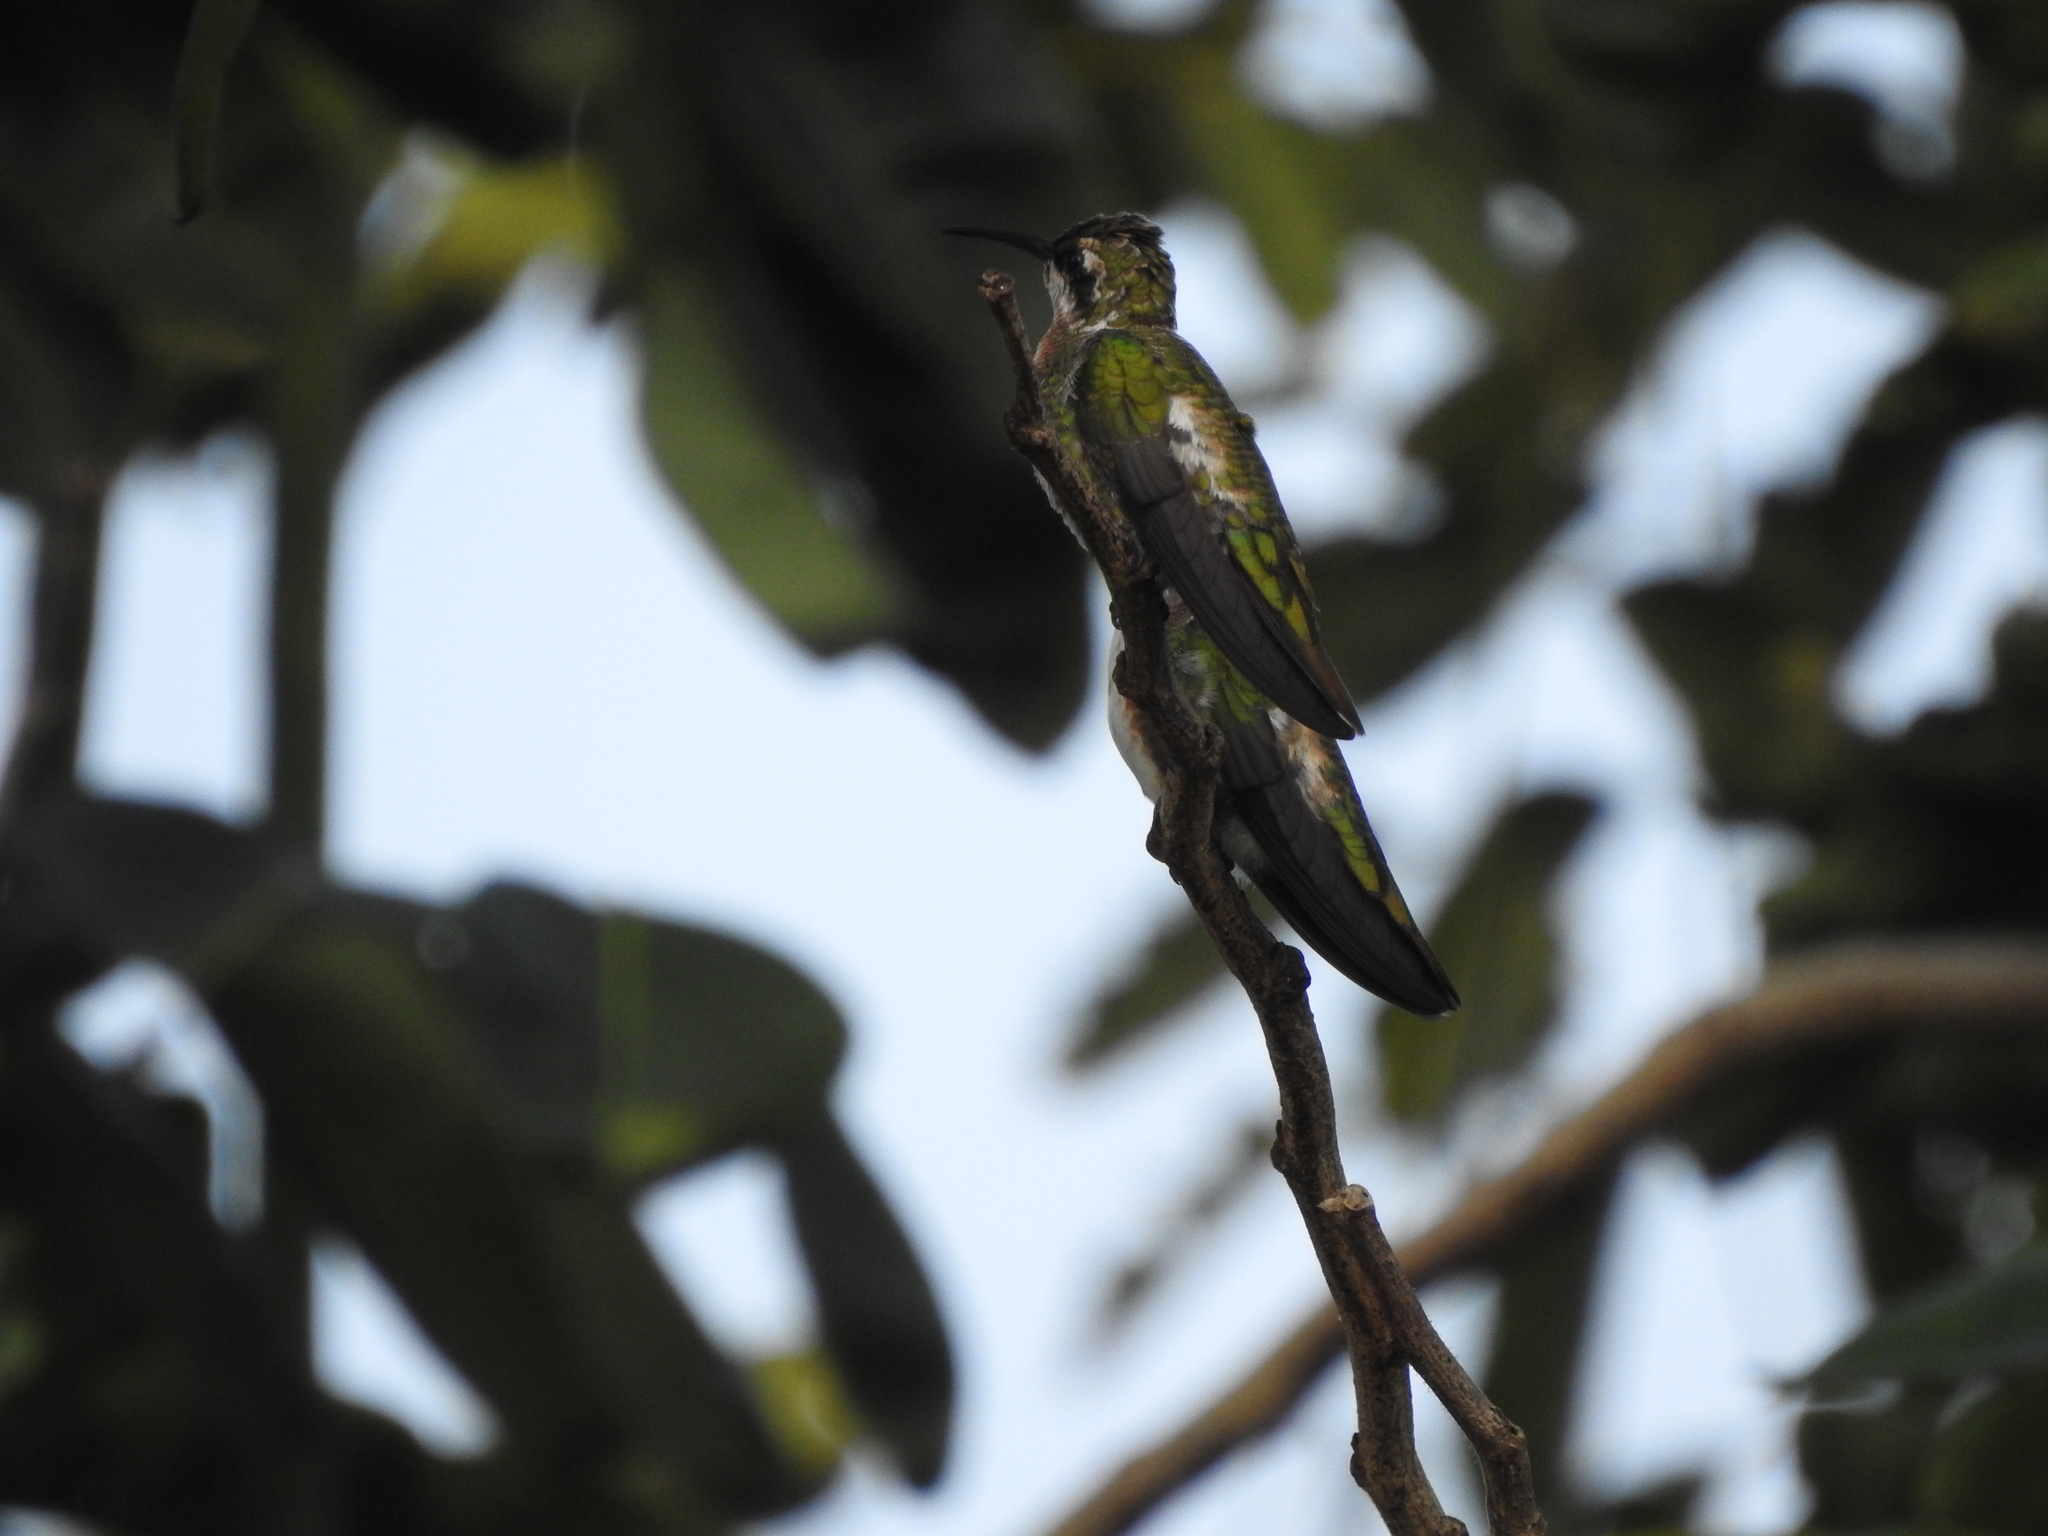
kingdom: Animalia
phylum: Chordata
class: Aves
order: Apodiformes
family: Trochilidae
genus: Anthracothorax
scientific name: Anthracothorax prevostii
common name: Green-breasted mango
